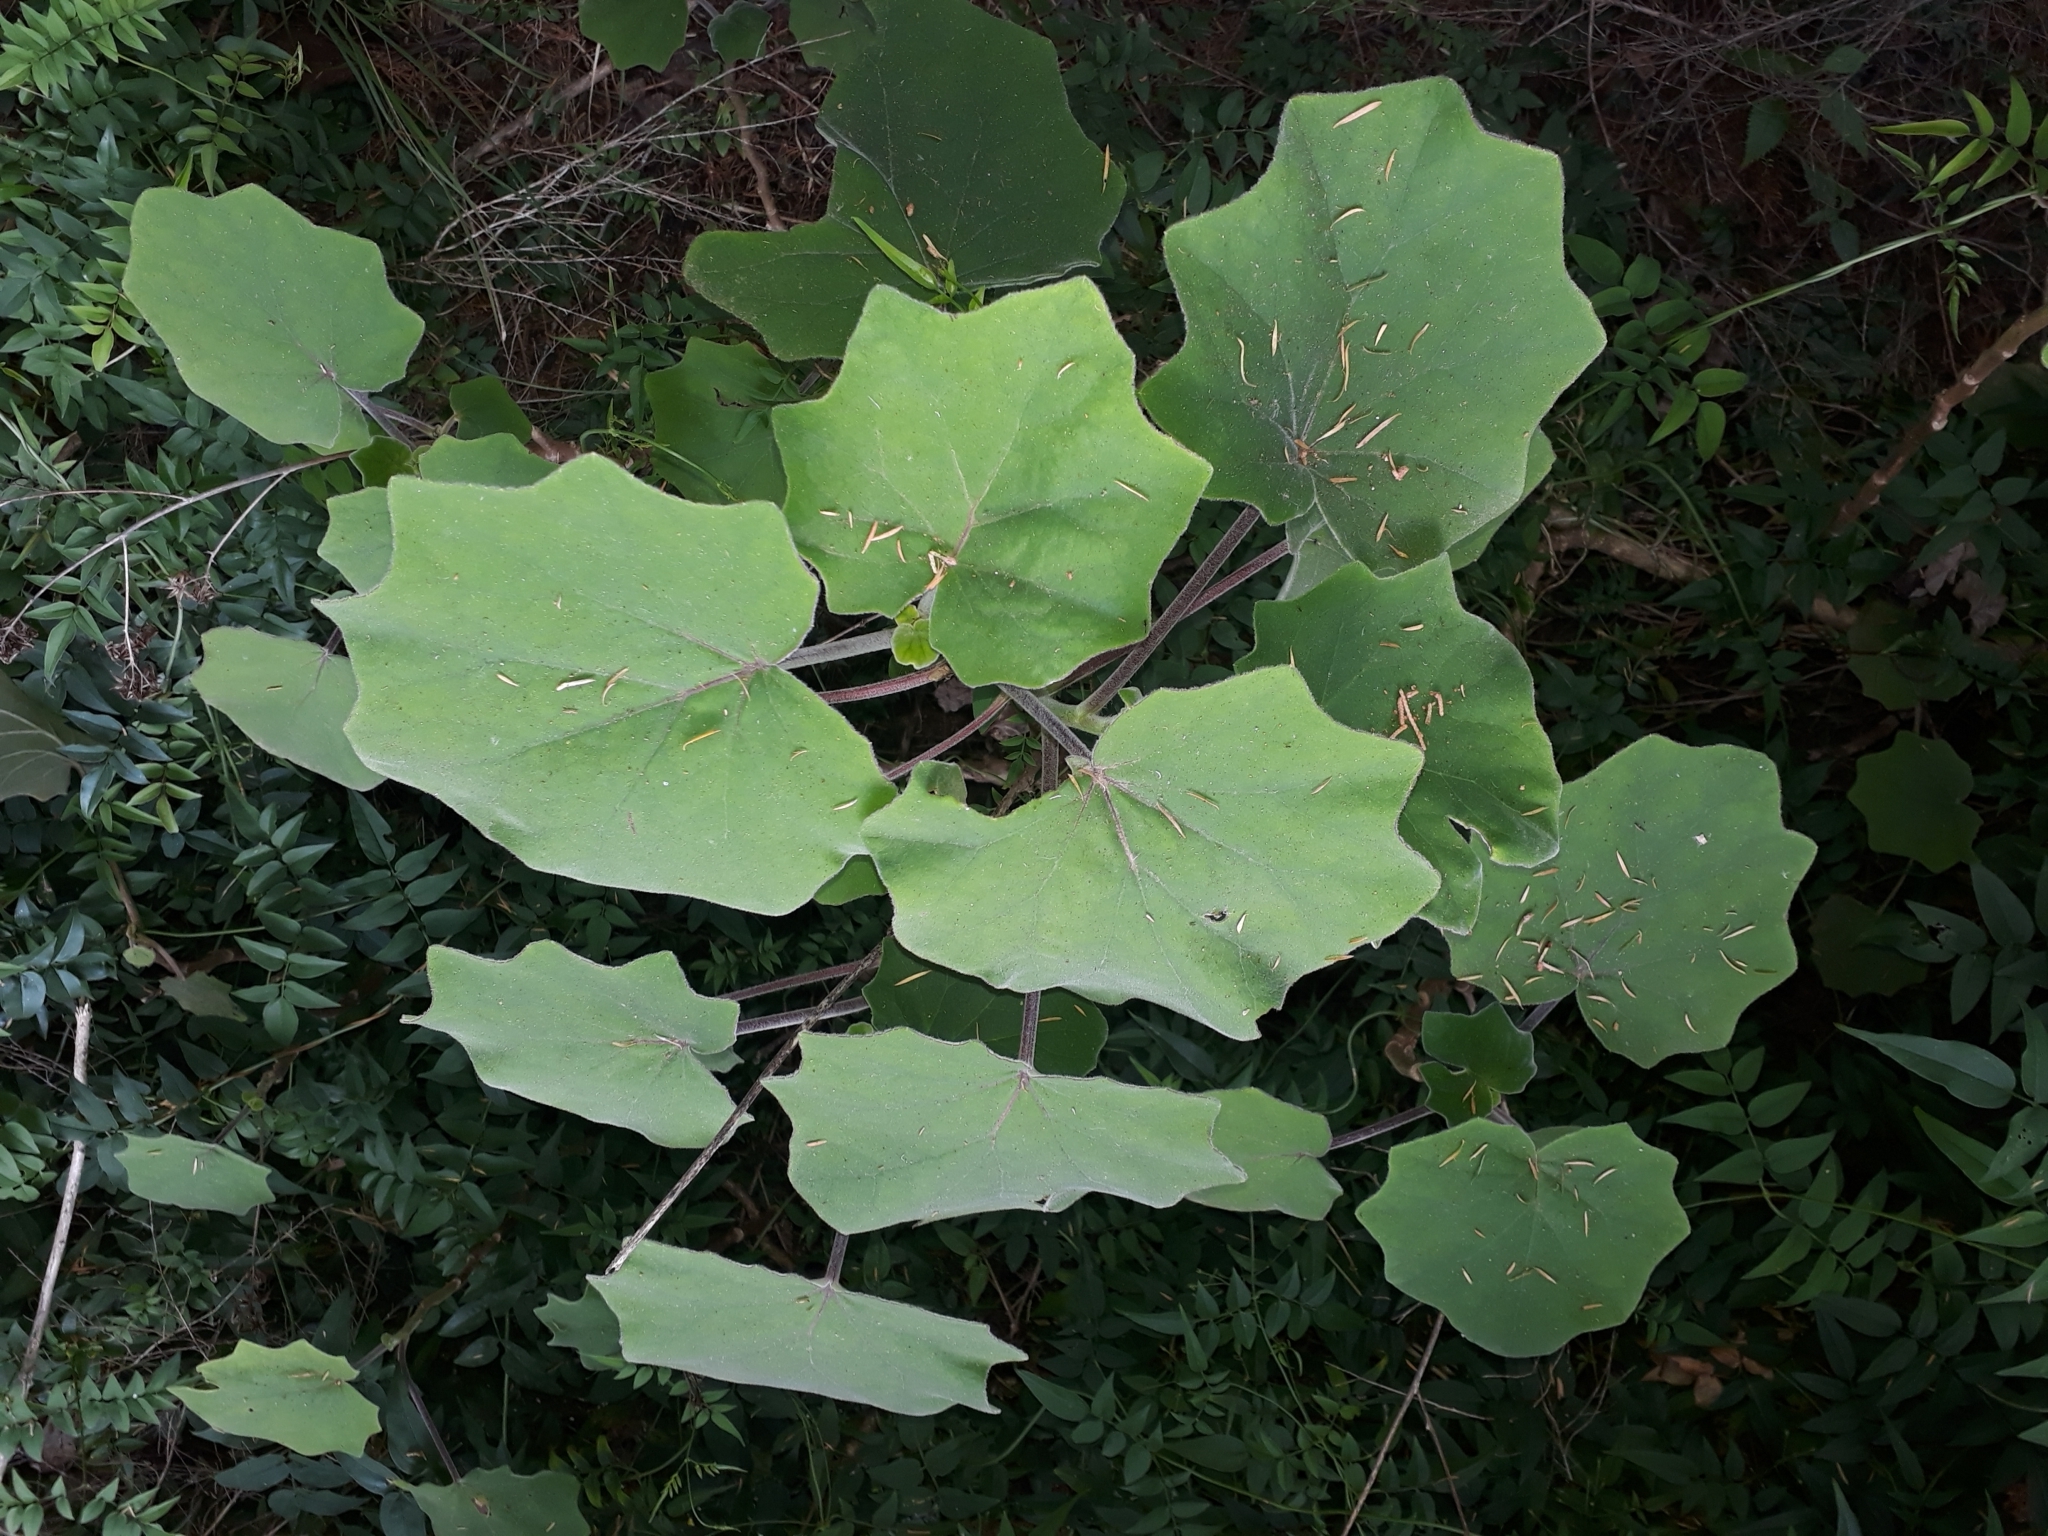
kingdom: Plantae
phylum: Tracheophyta
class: Magnoliopsida
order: Asterales
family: Asteraceae
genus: Roldana
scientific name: Roldana petasitis
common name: California-geranium
